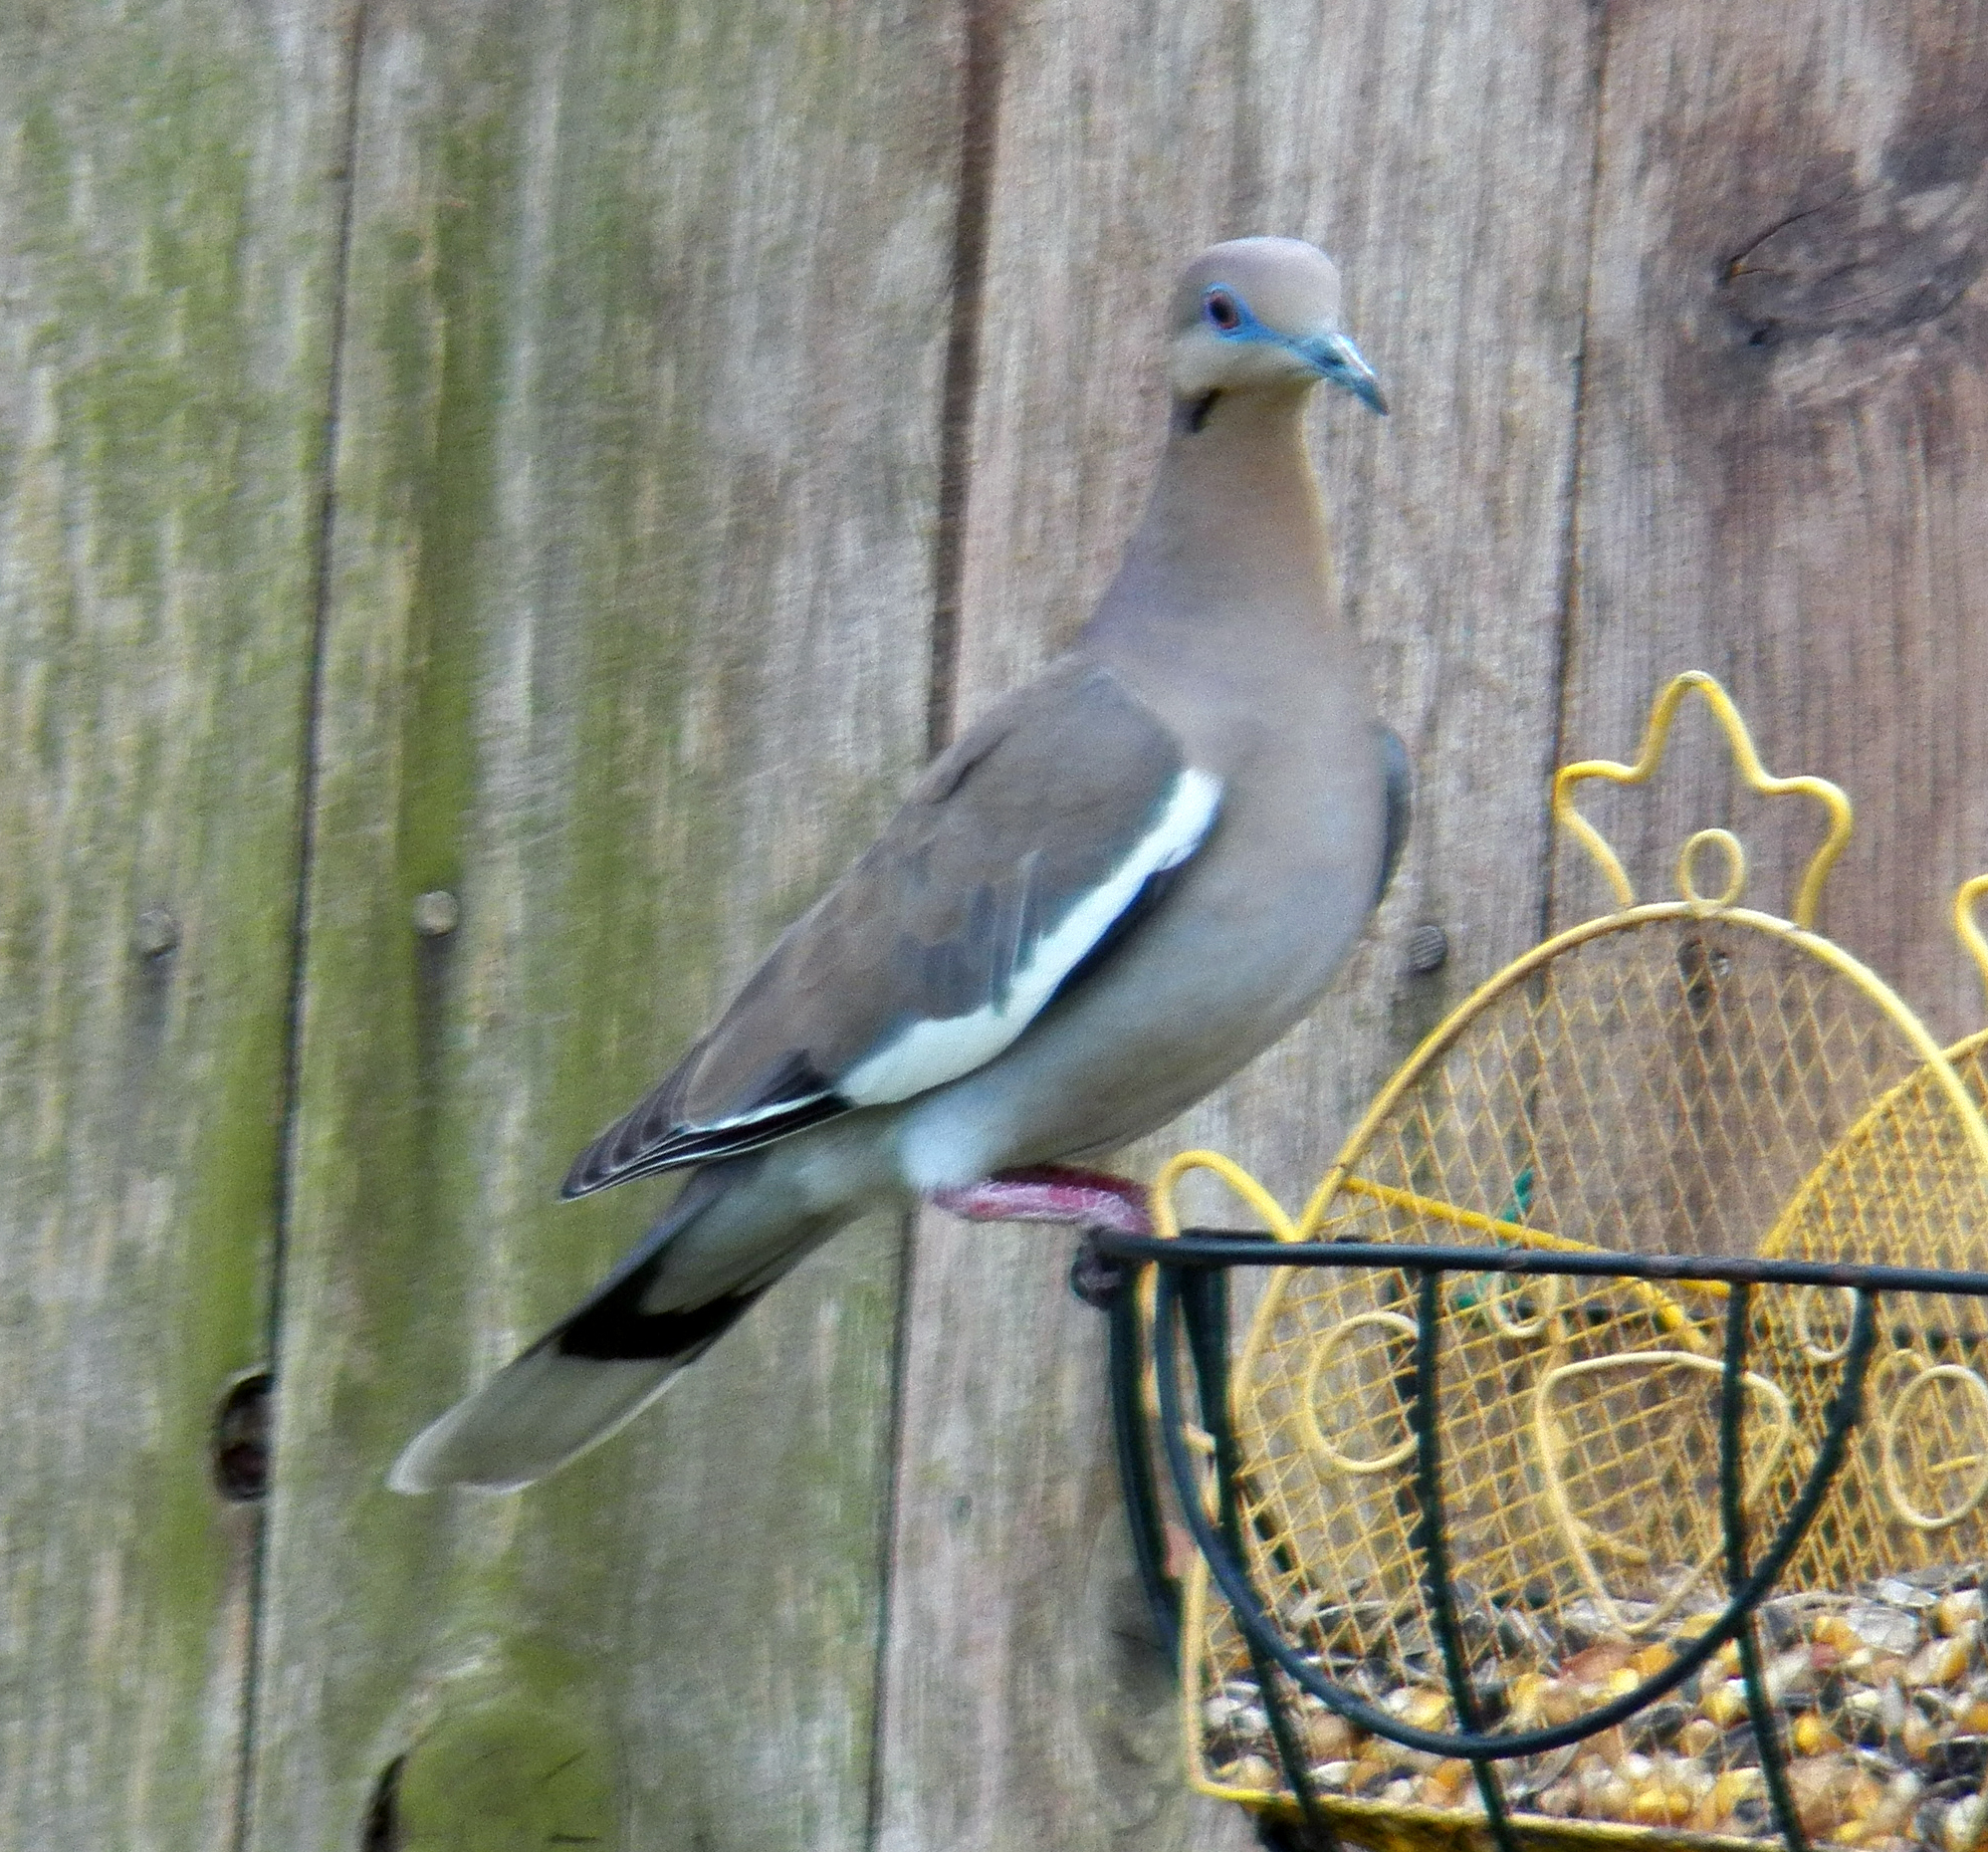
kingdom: Animalia
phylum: Chordata
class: Aves
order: Columbiformes
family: Columbidae
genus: Zenaida
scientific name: Zenaida asiatica
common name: White-winged dove
